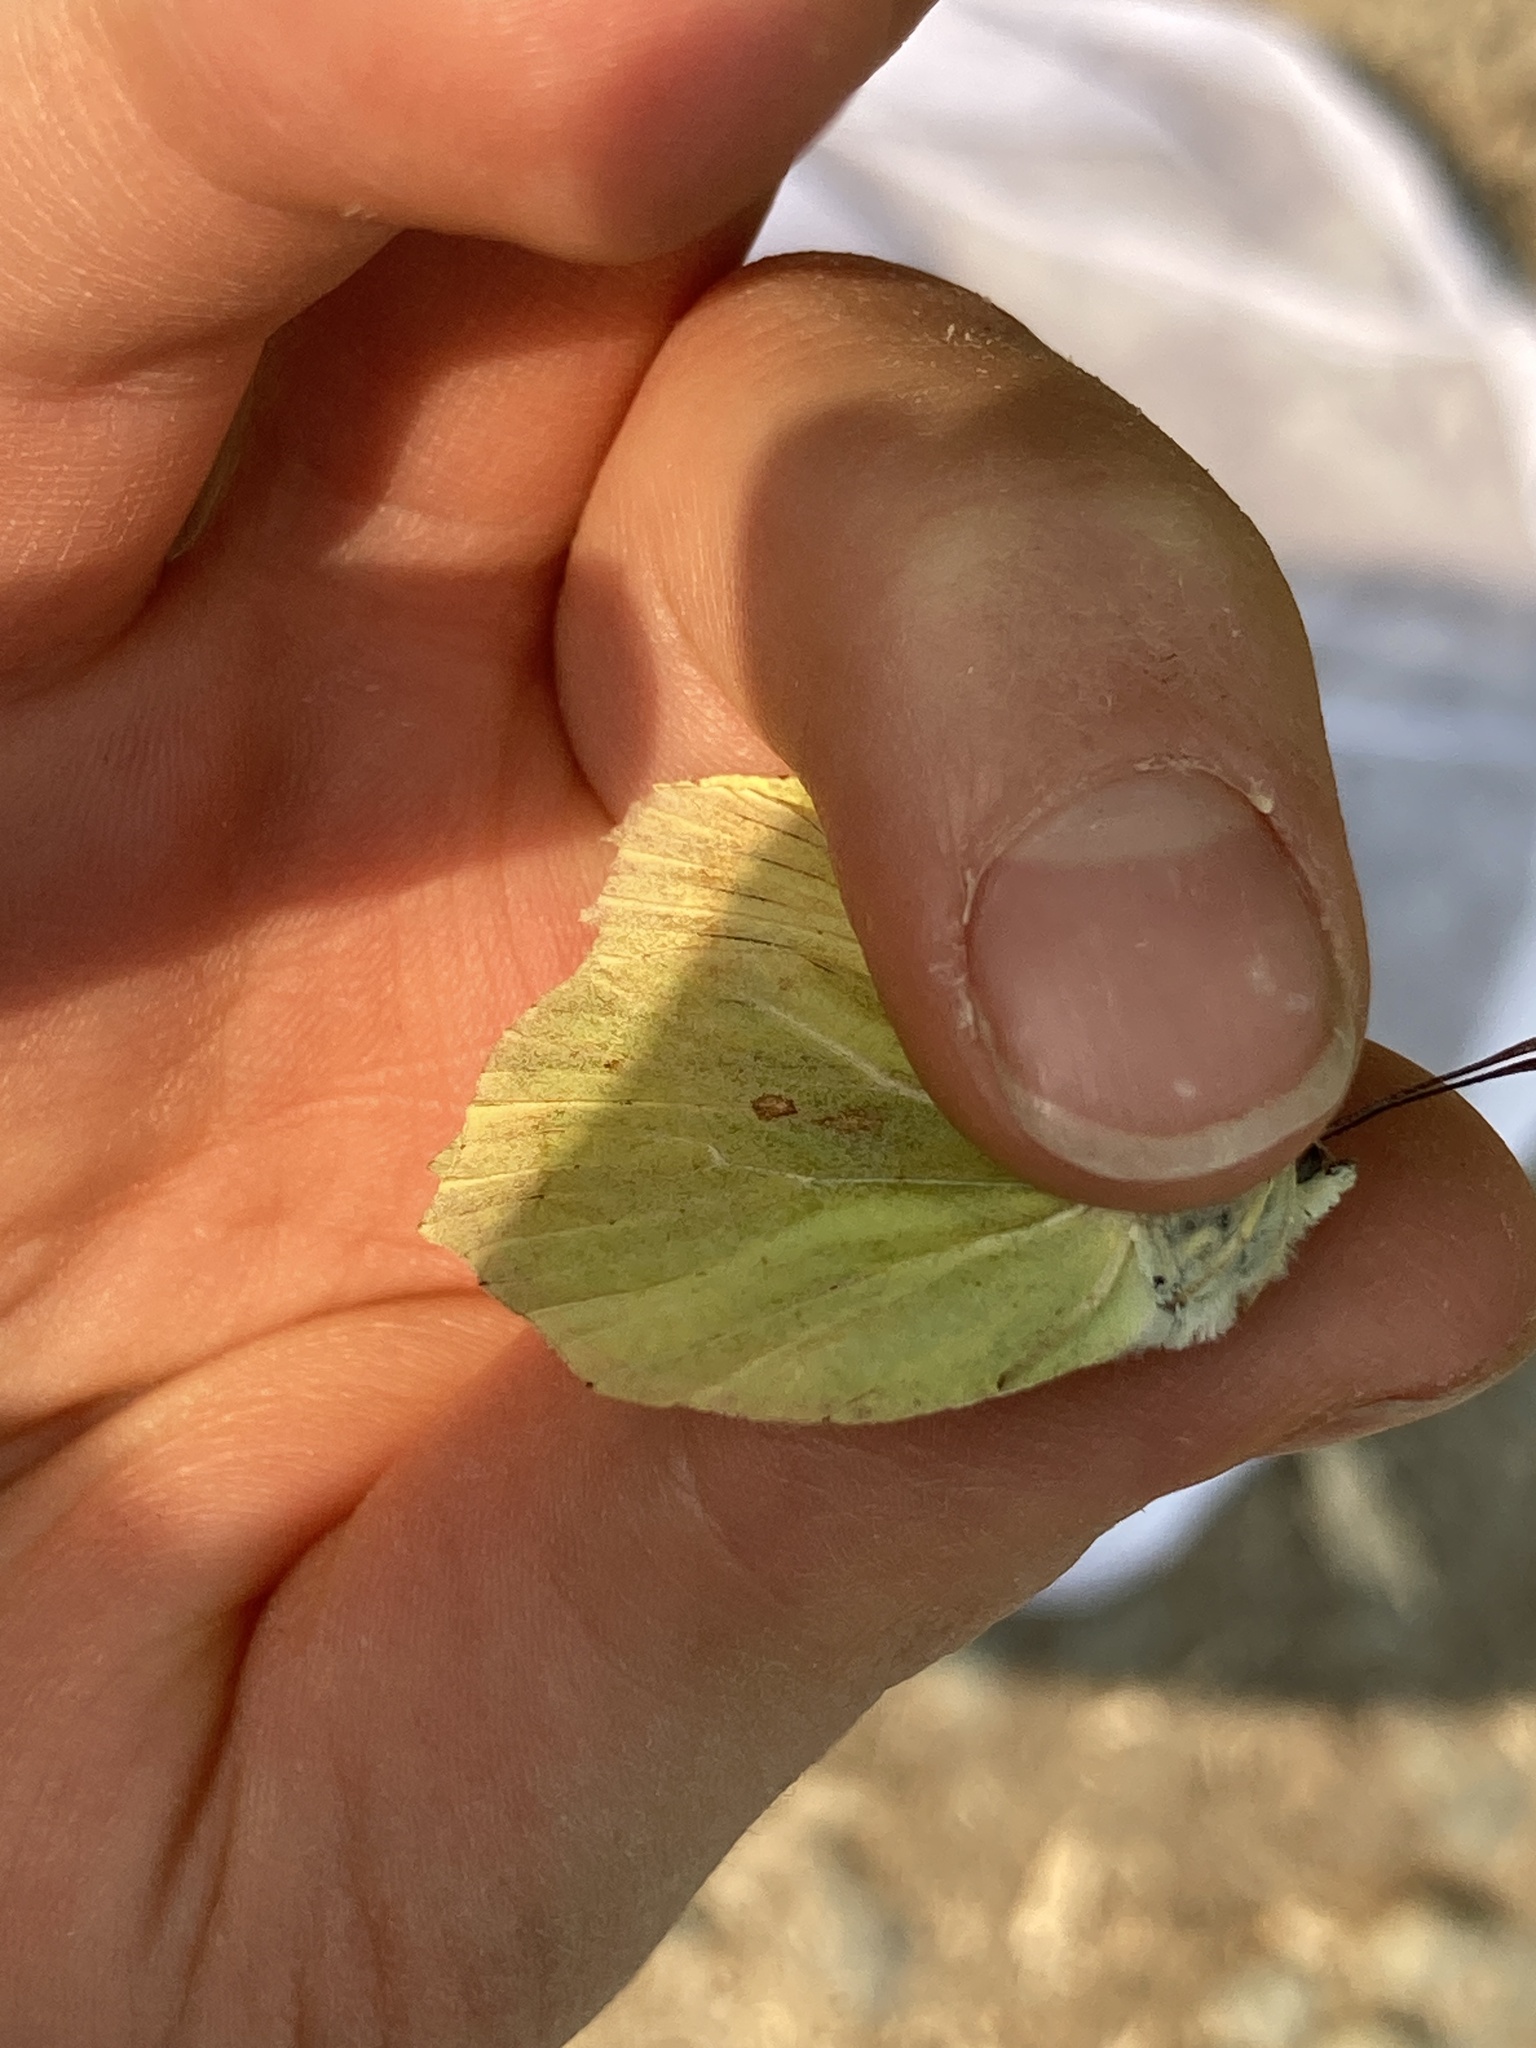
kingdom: Animalia
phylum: Arthropoda
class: Insecta
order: Lepidoptera
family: Pieridae
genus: Gonepteryx
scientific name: Gonepteryx rhamni
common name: Brimstone
